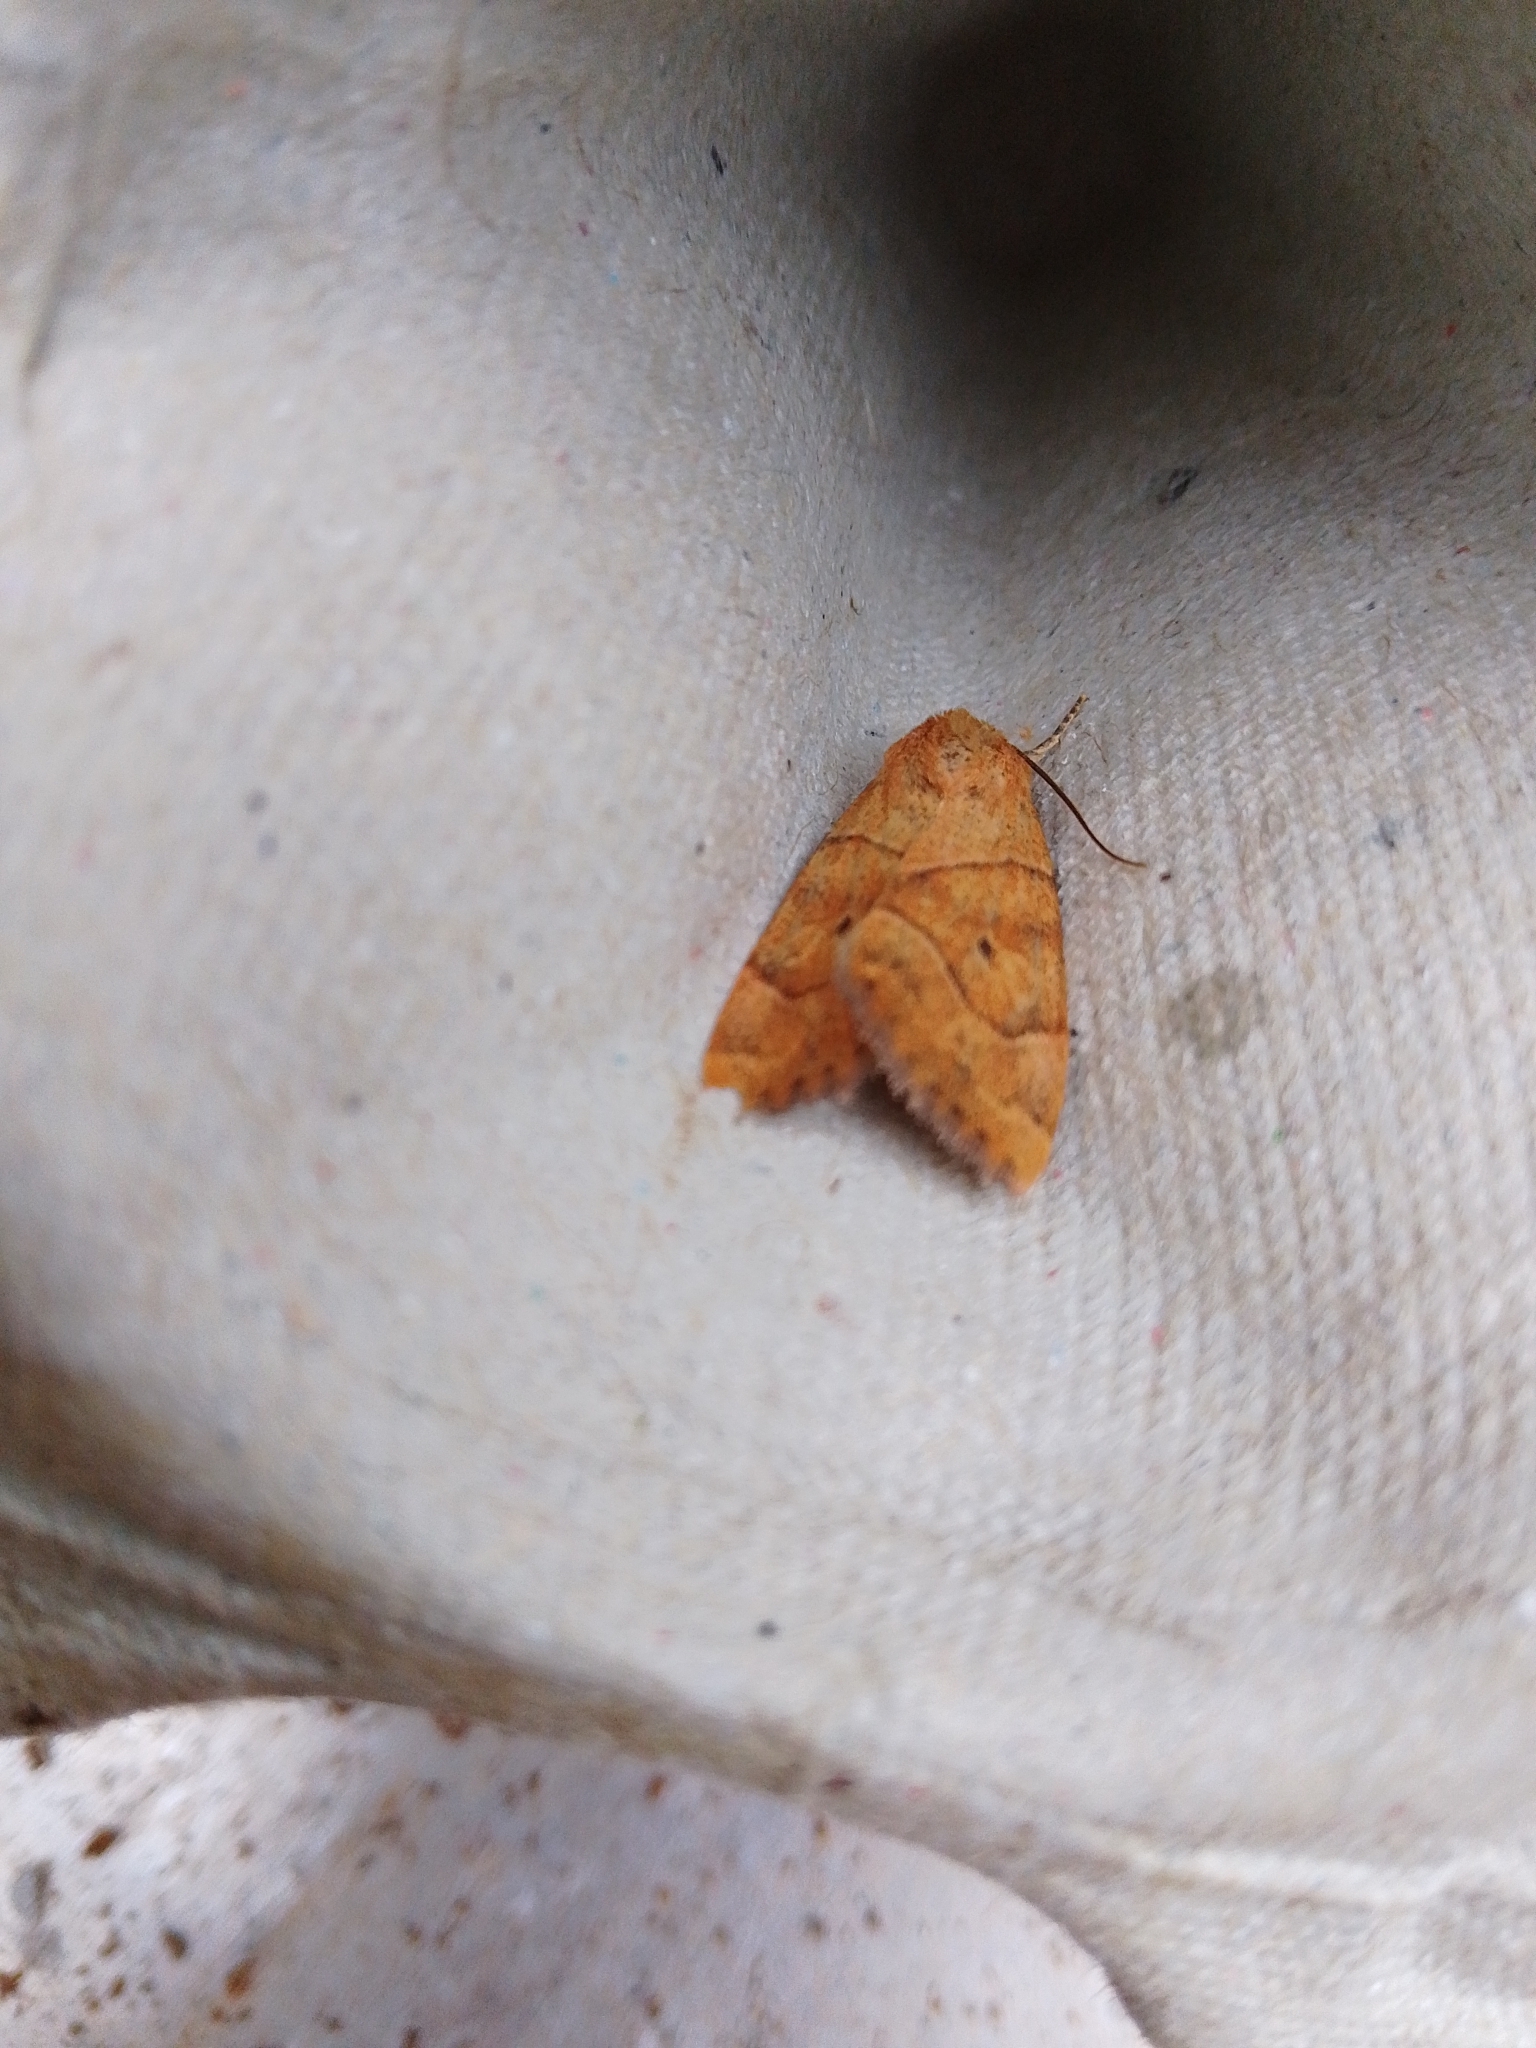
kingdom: Animalia
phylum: Arthropoda
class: Insecta
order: Lepidoptera
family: Noctuidae
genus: Cosmia
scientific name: Cosmia trapezina
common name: Dun-bar
